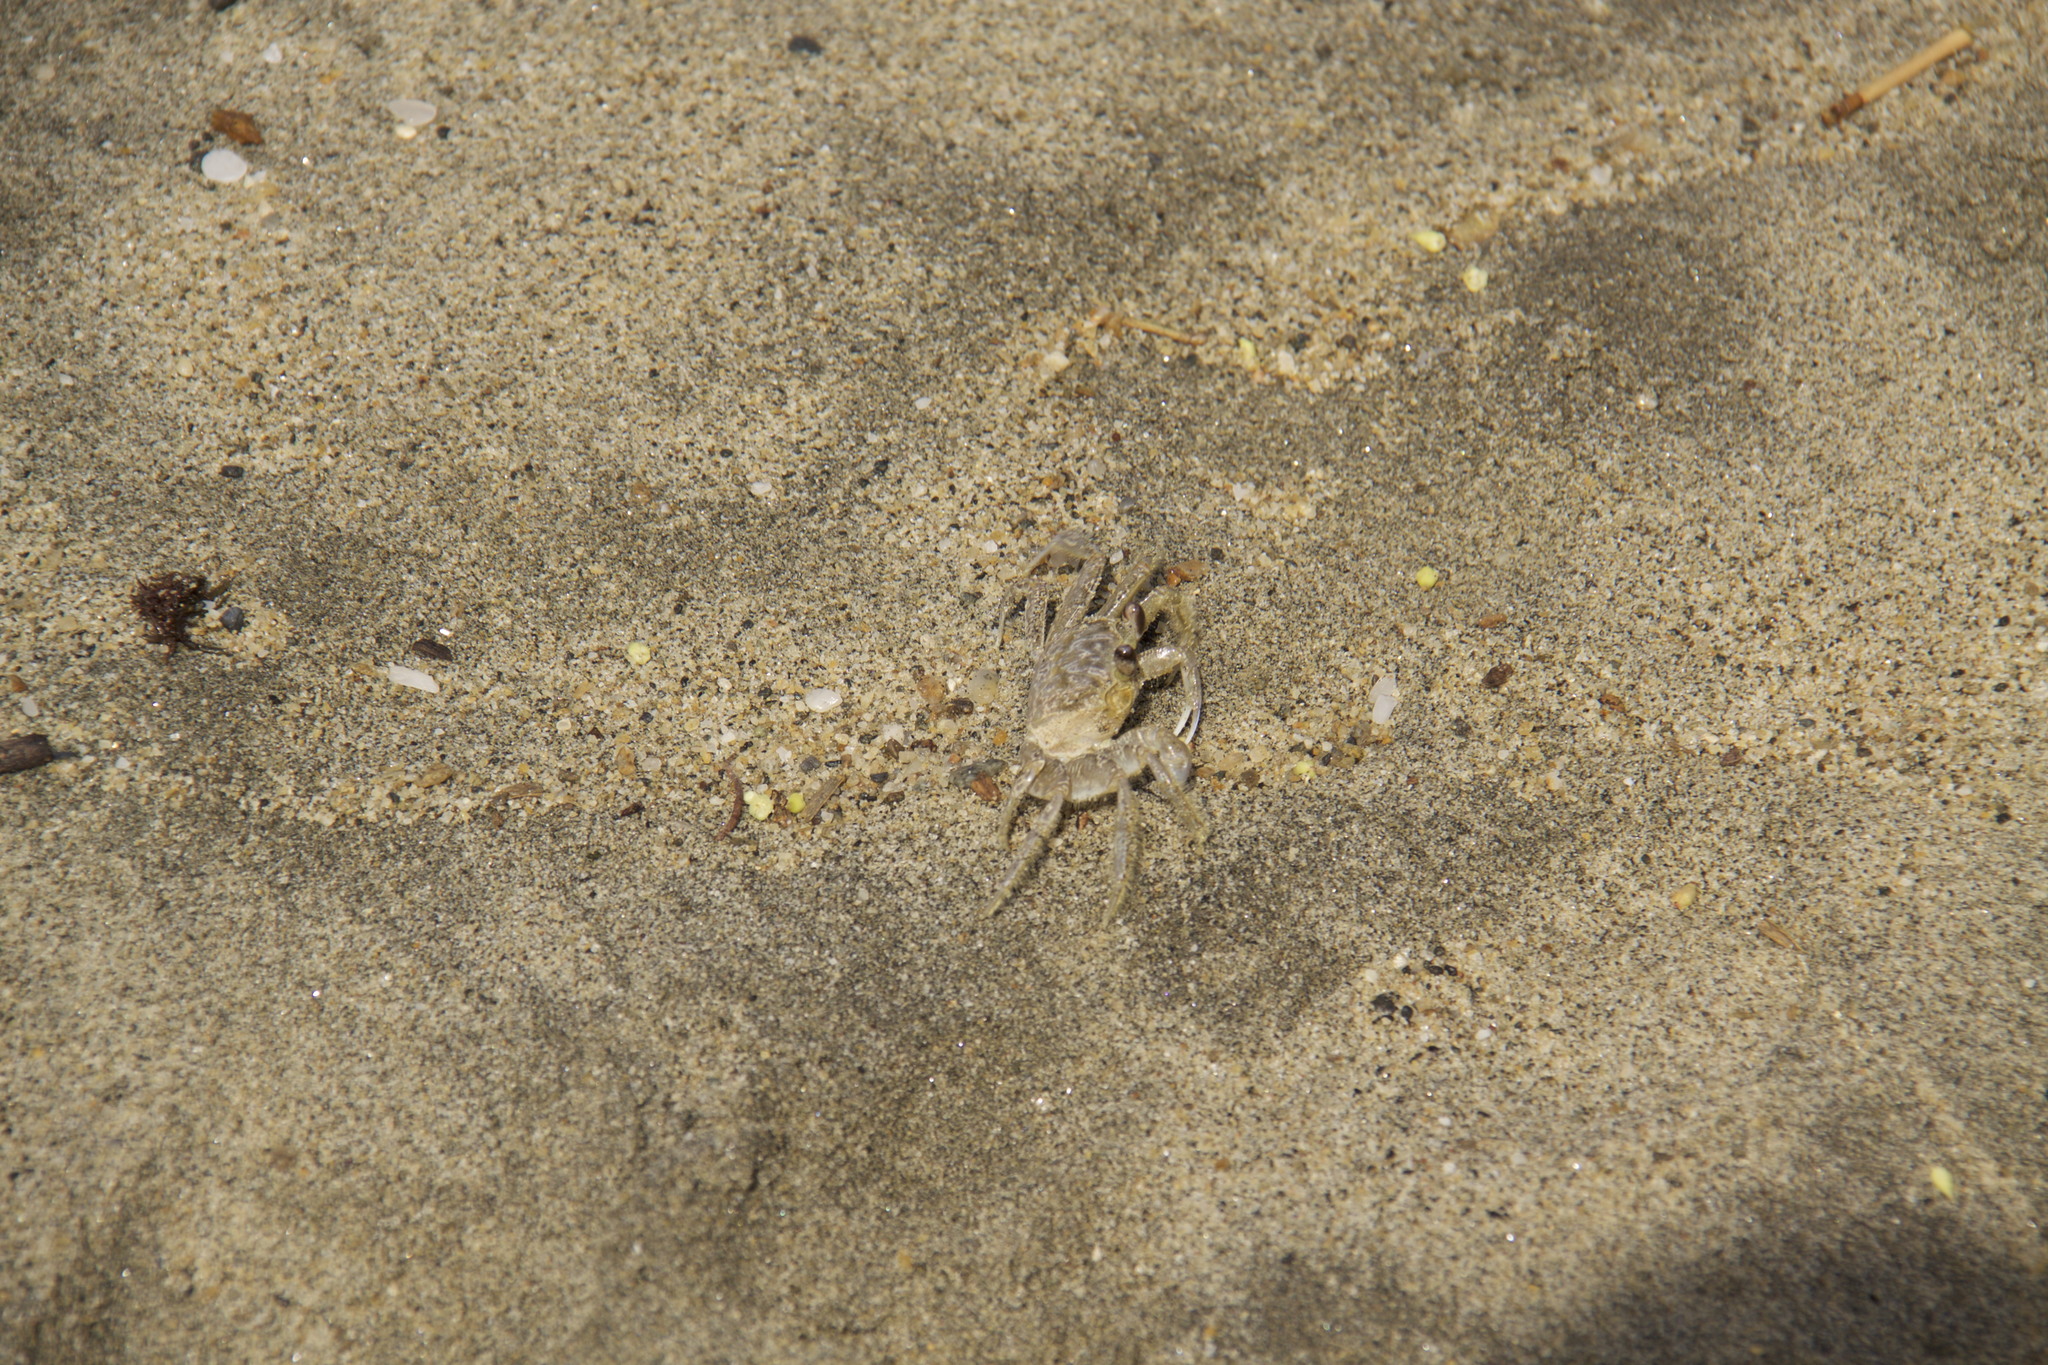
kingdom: Animalia
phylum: Arthropoda
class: Malacostraca
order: Decapoda
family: Ocypodidae
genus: Ocypode
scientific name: Ocypode quadrata
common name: Ghost crab
